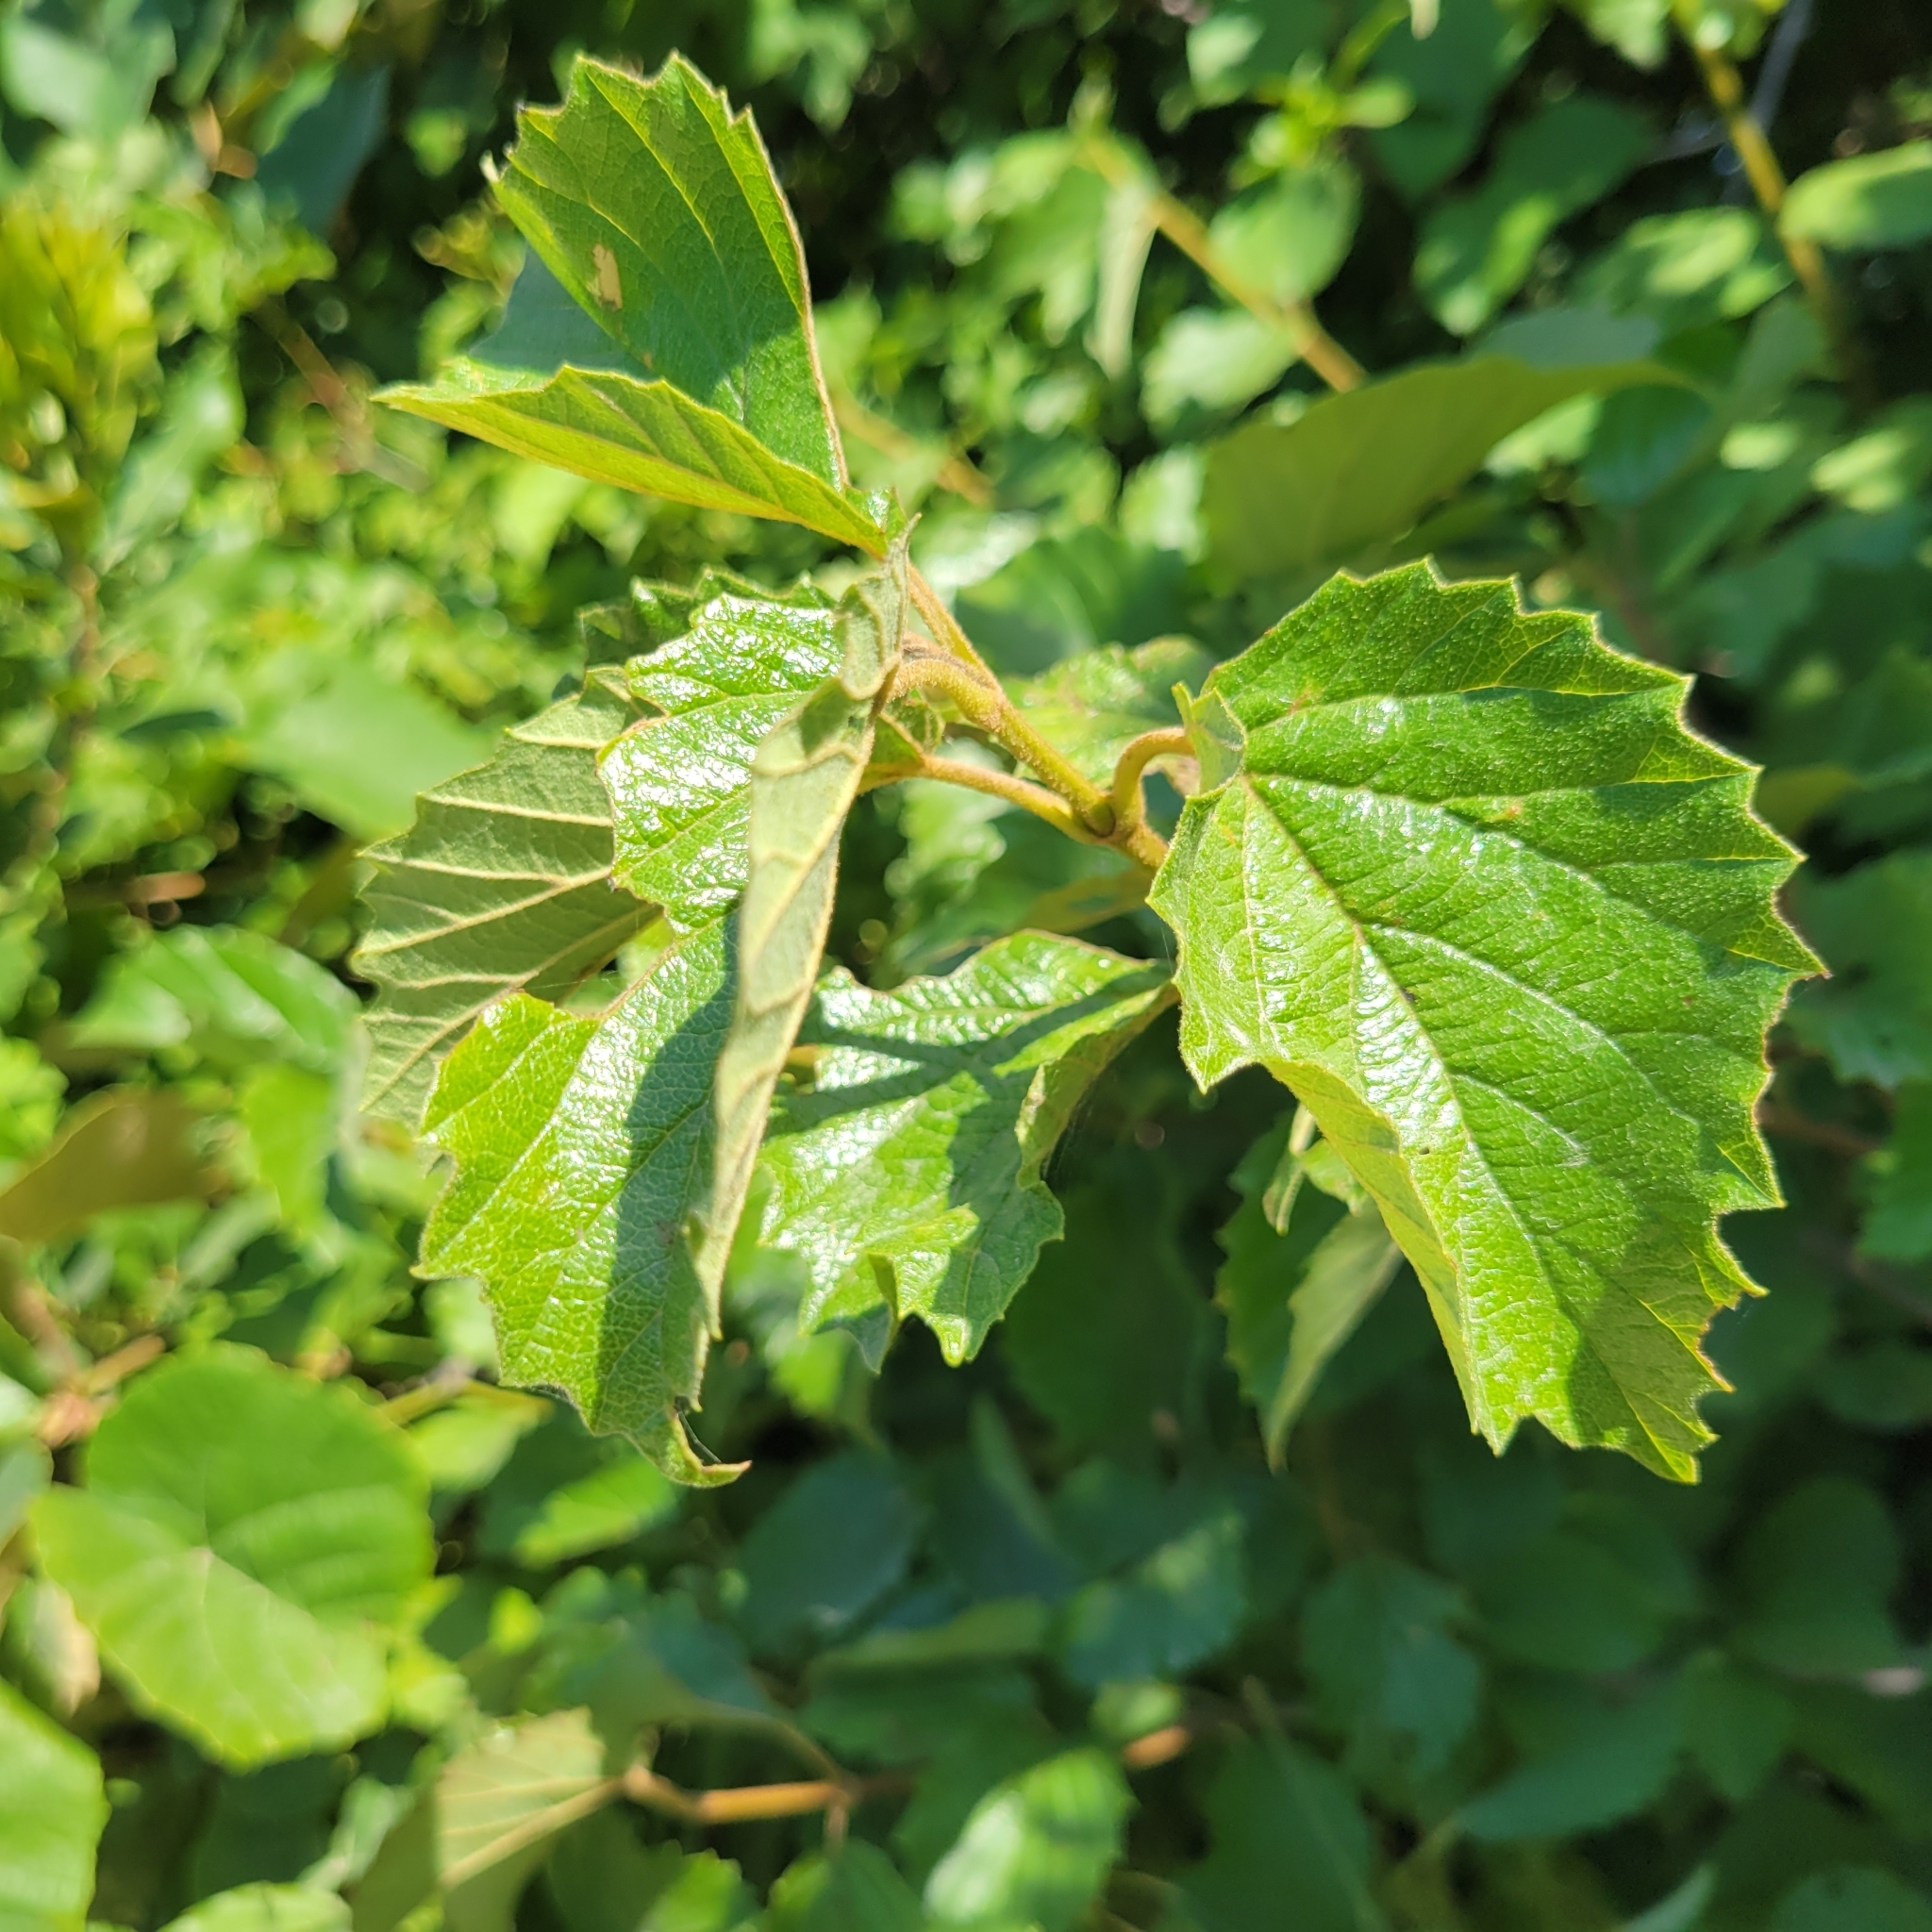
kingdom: Plantae
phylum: Tracheophyta
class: Magnoliopsida
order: Dipsacales
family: Viburnaceae
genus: Viburnum
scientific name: Viburnum dentatum
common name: Arrow-wood
